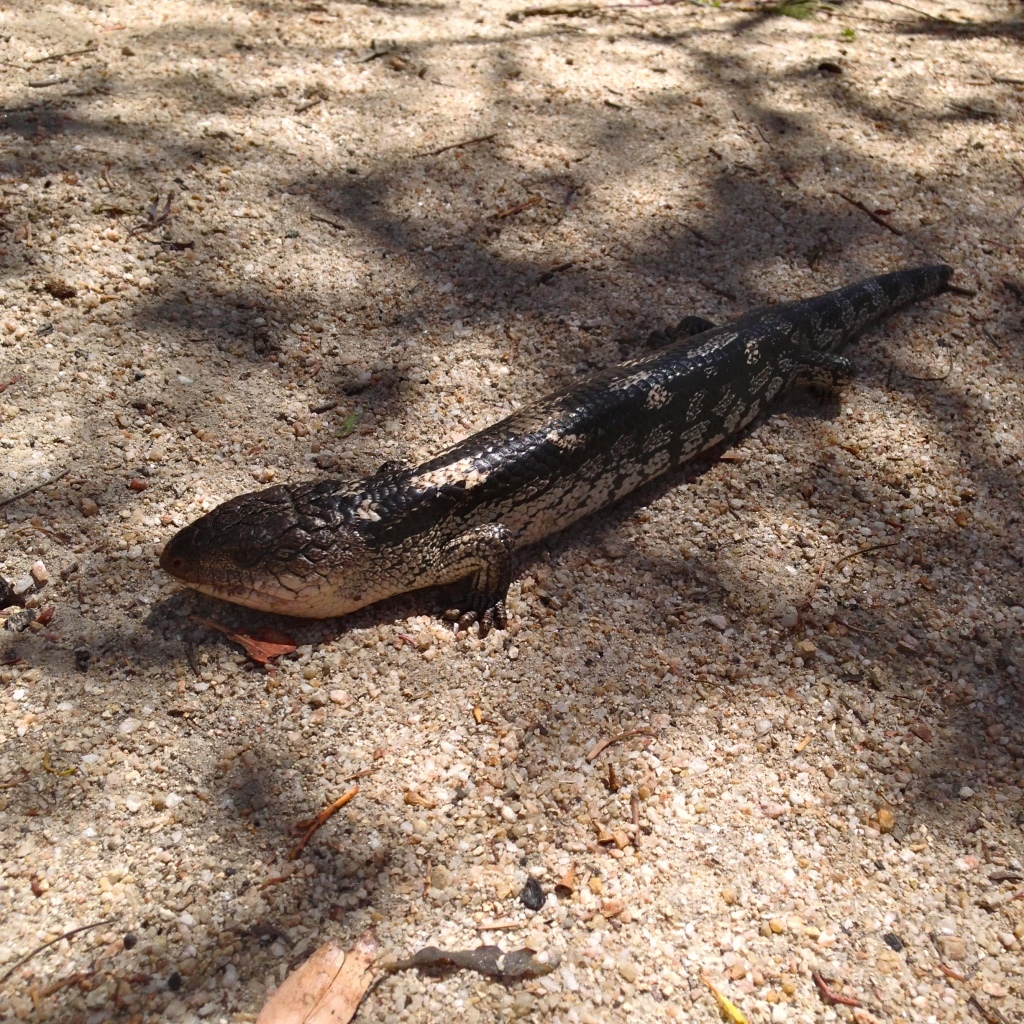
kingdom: Animalia
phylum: Chordata
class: Squamata
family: Scincidae
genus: Tiliqua
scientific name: Tiliqua nigrolutea
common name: Blotched blue-tongued lizard
